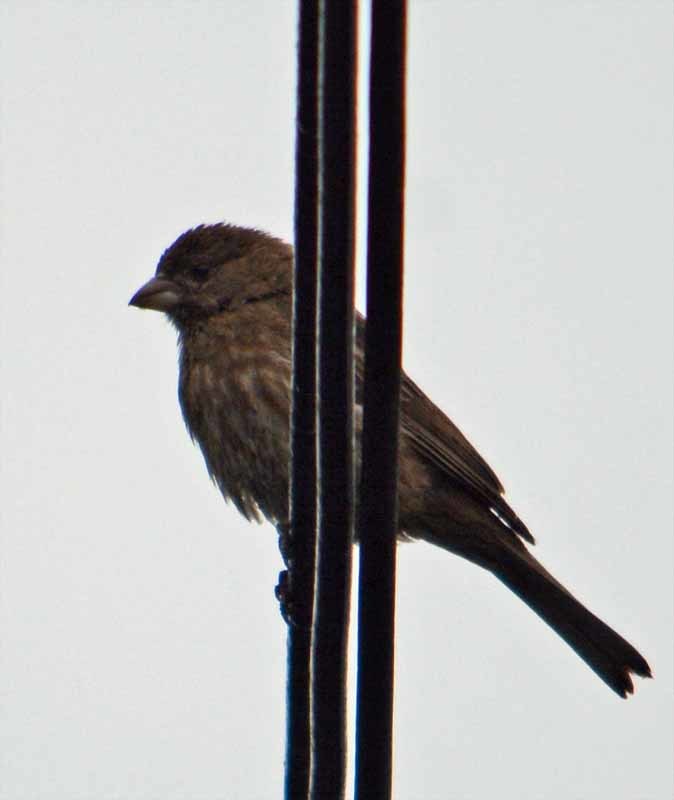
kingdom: Animalia
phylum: Chordata
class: Aves
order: Passeriformes
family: Fringillidae
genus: Haemorhous
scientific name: Haemorhous mexicanus
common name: House finch
